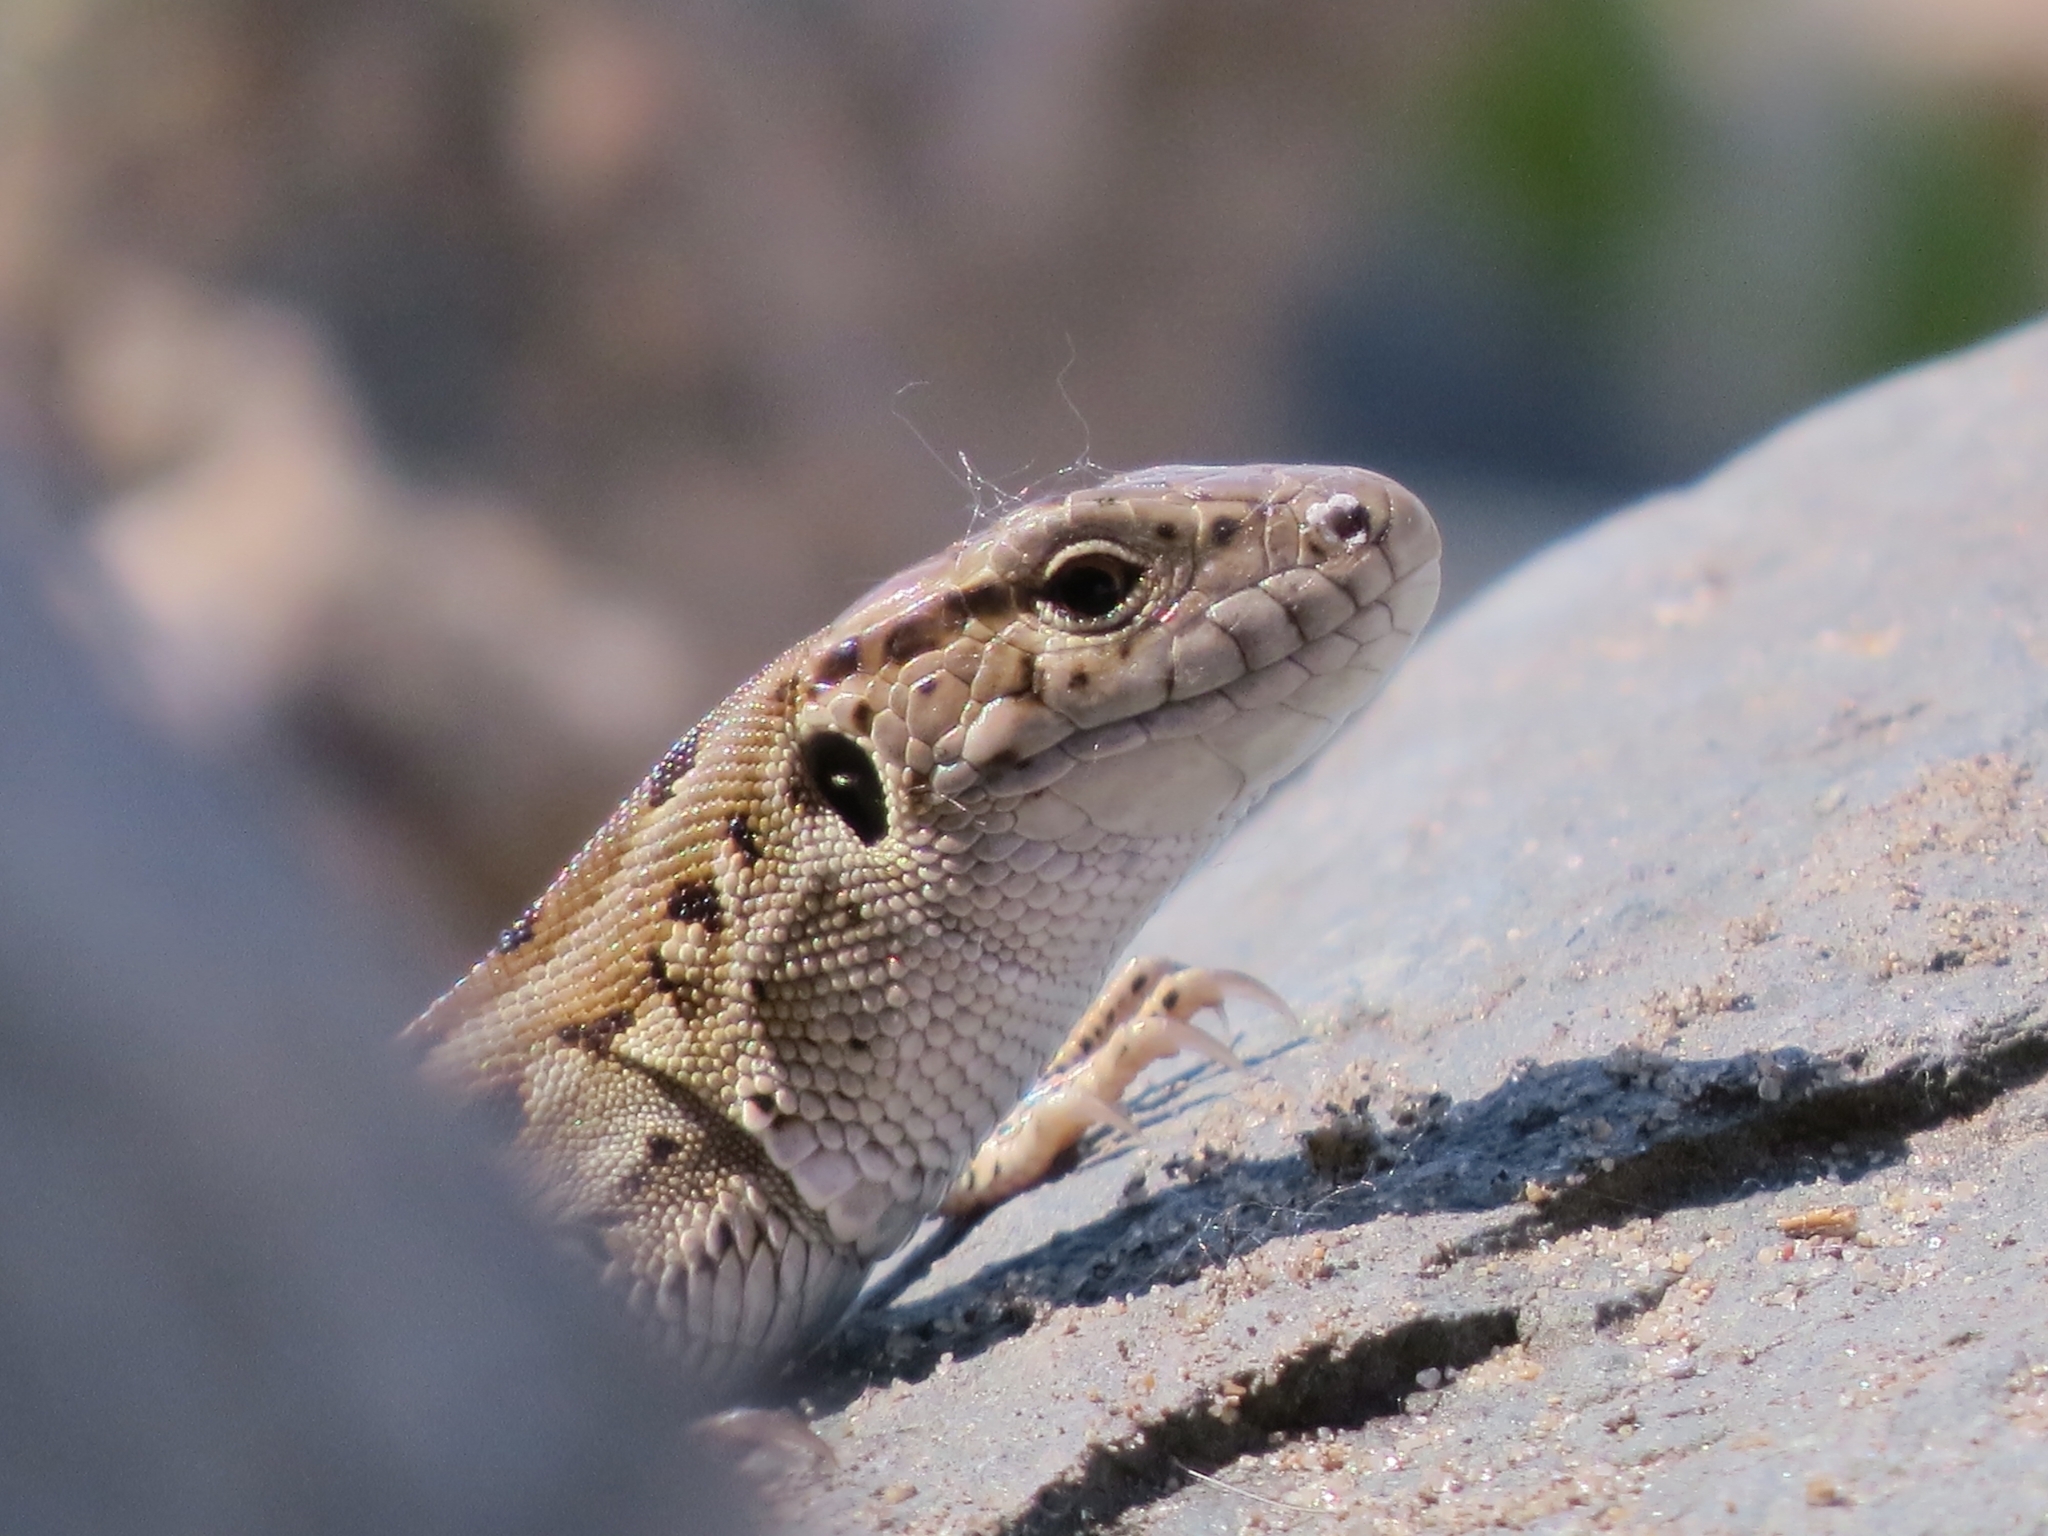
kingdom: Animalia
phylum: Chordata
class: Squamata
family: Lacertidae
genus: Lacerta
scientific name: Lacerta agilis
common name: Sand lizard
